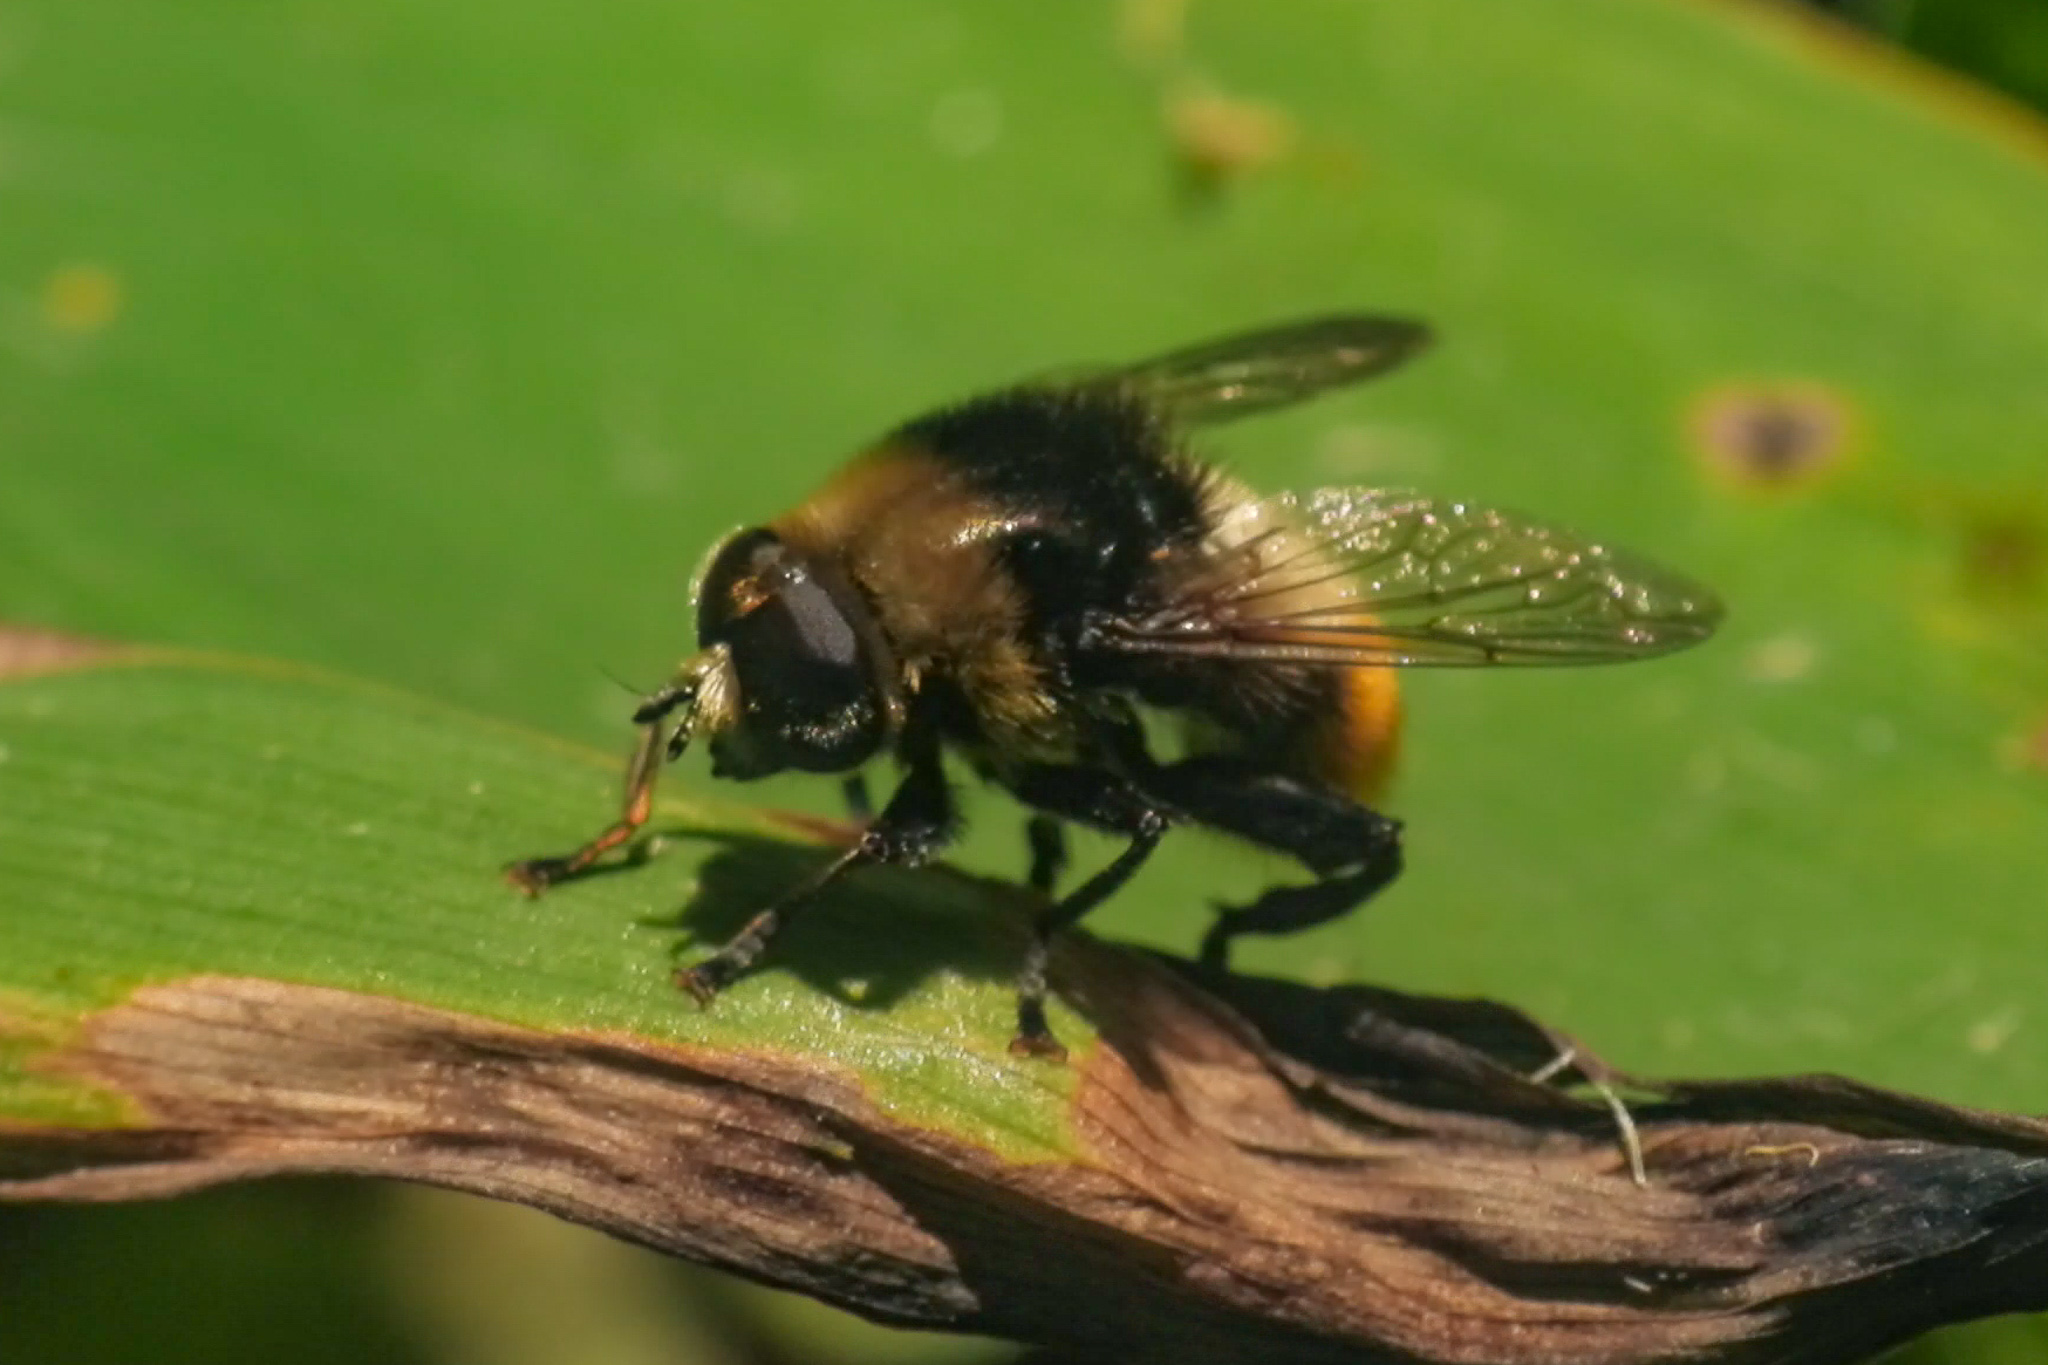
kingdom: Animalia
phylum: Arthropoda
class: Insecta
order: Diptera
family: Syrphidae
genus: Merodon
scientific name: Merodon equestris
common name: Greater bulb-fly
